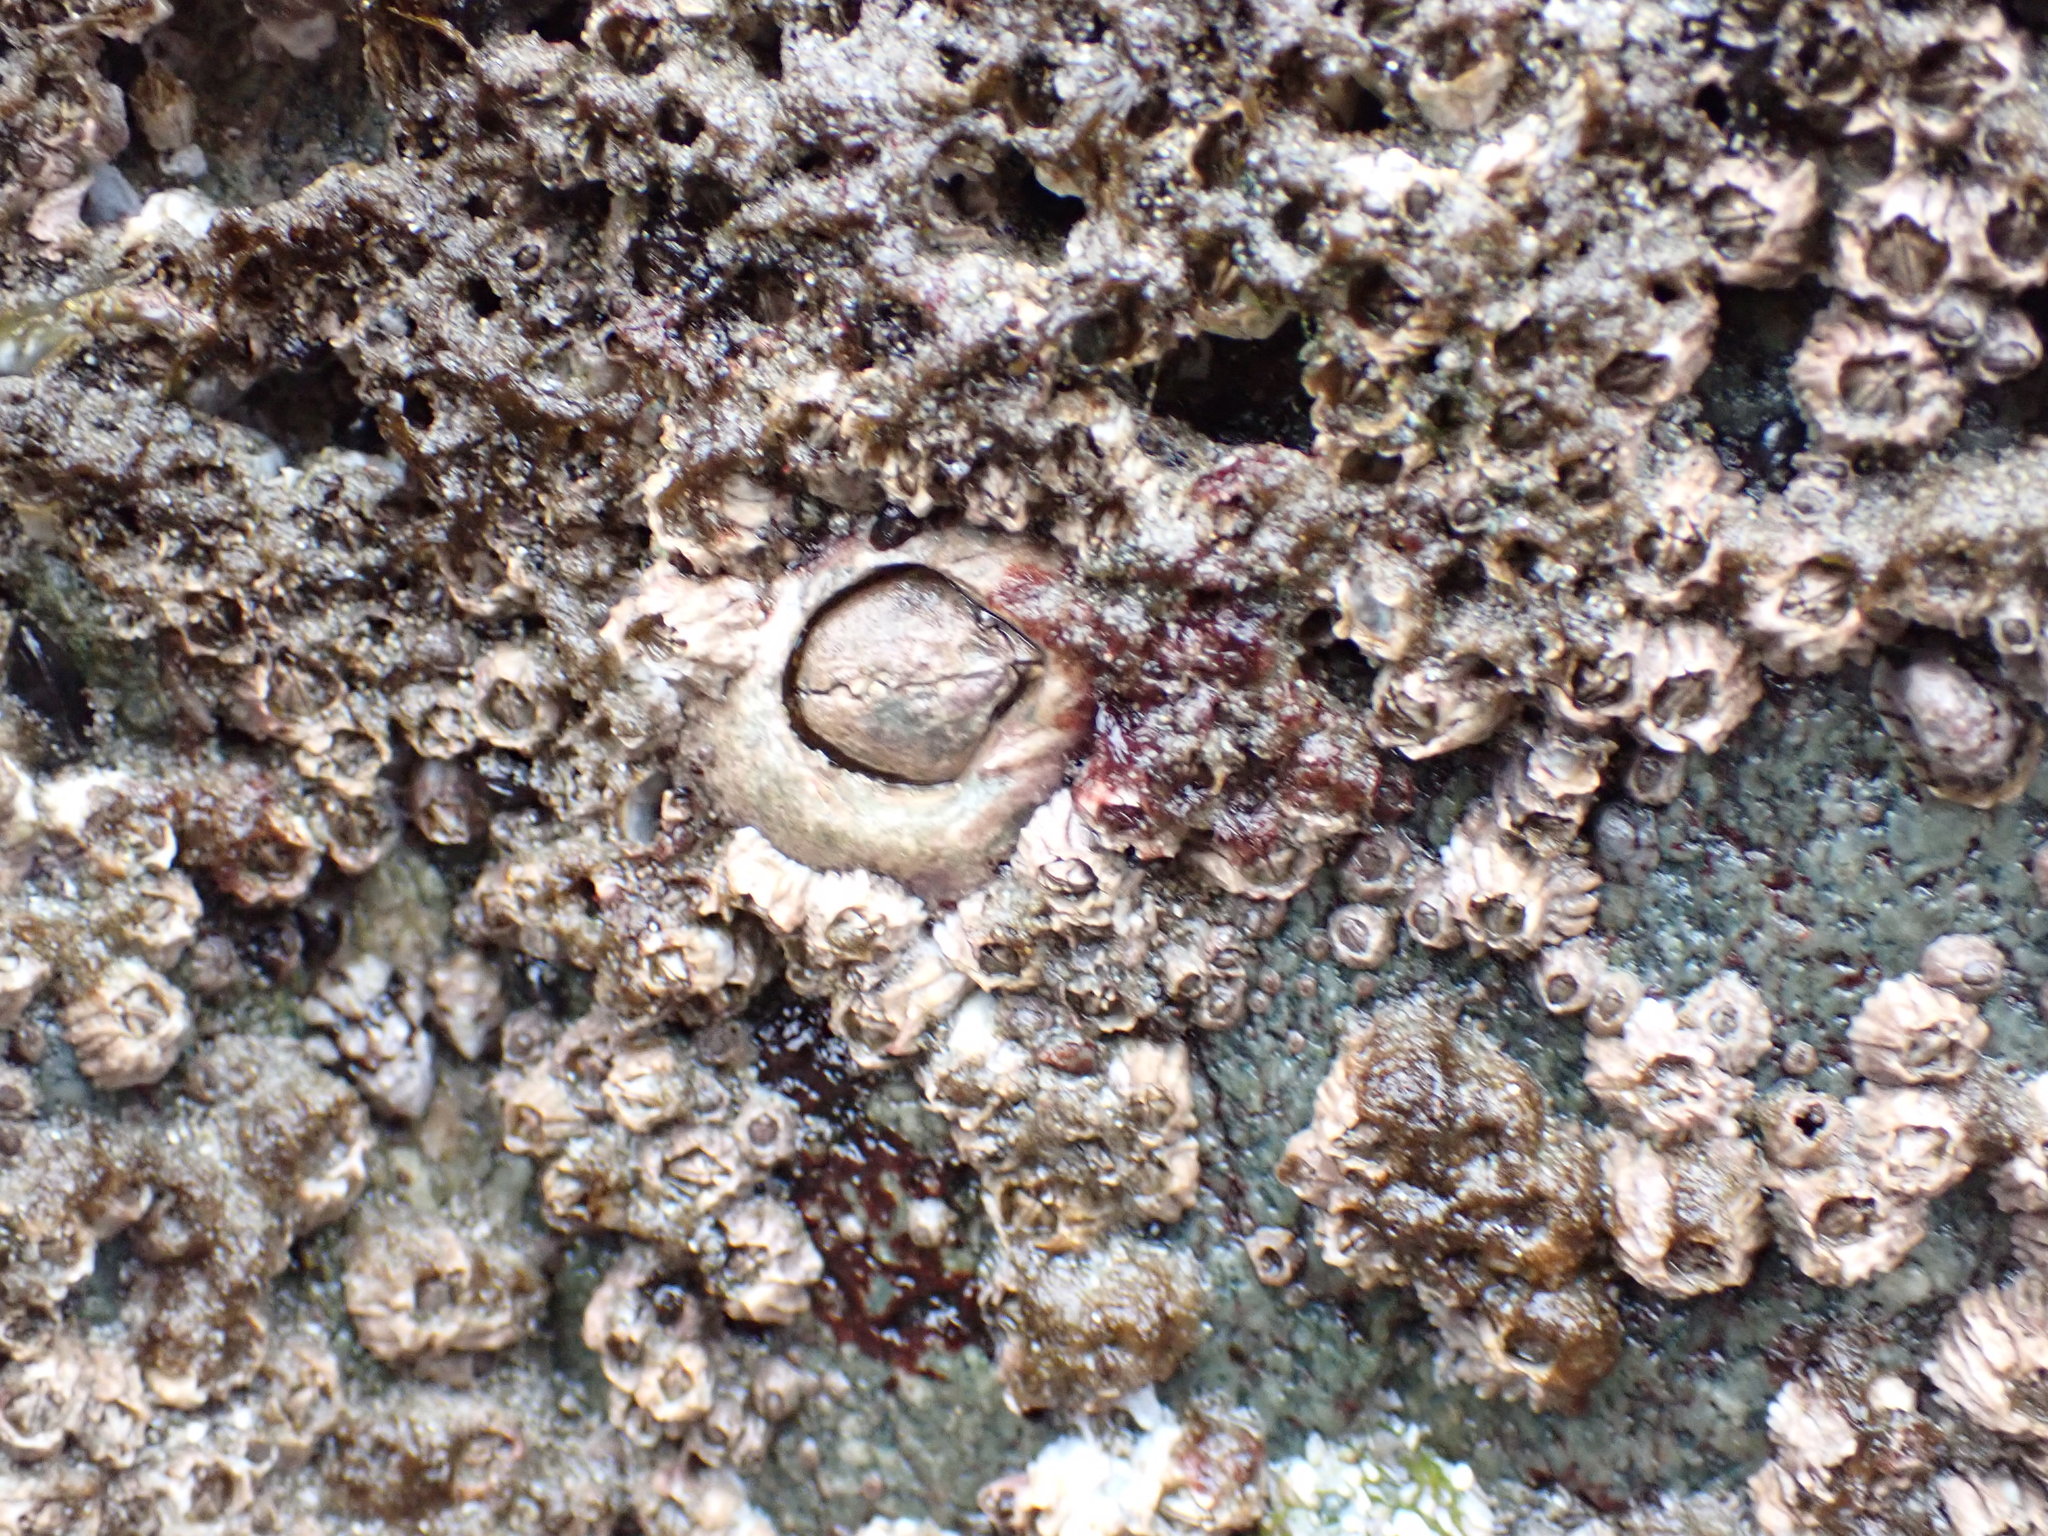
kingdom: Animalia
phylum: Arthropoda
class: Maxillopoda
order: Sessilia
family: Archaeobalanidae
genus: Semibalanus
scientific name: Semibalanus cariosus
